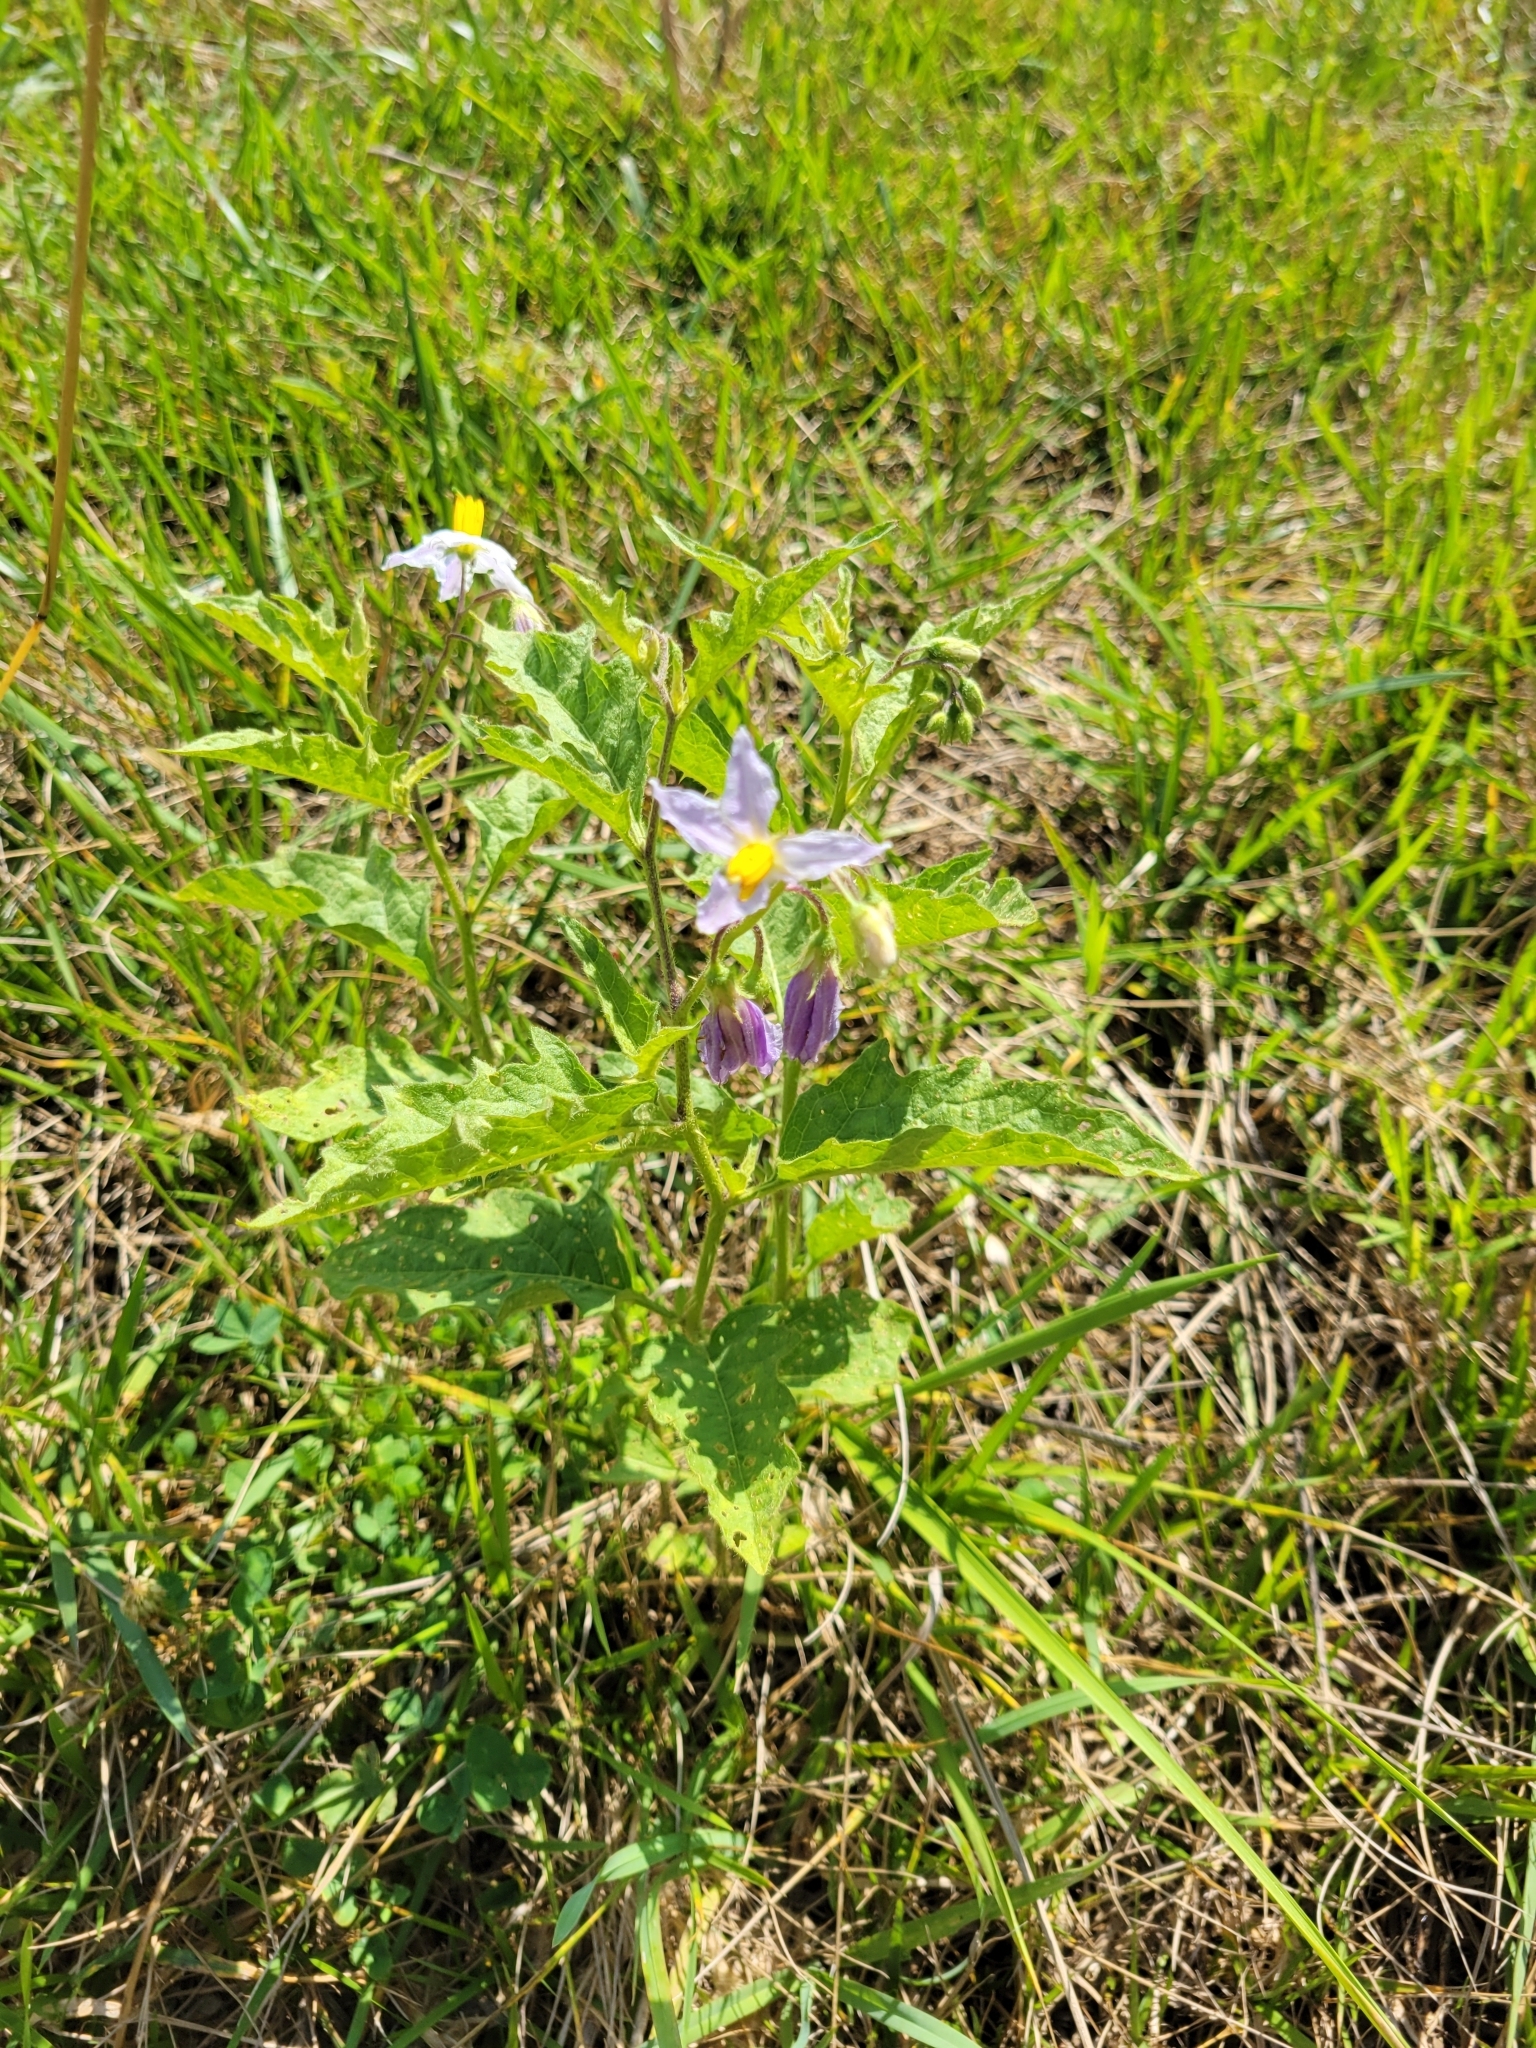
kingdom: Plantae
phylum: Tracheophyta
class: Magnoliopsida
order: Solanales
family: Solanaceae
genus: Solanum
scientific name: Solanum carolinense
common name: Horse-nettle
